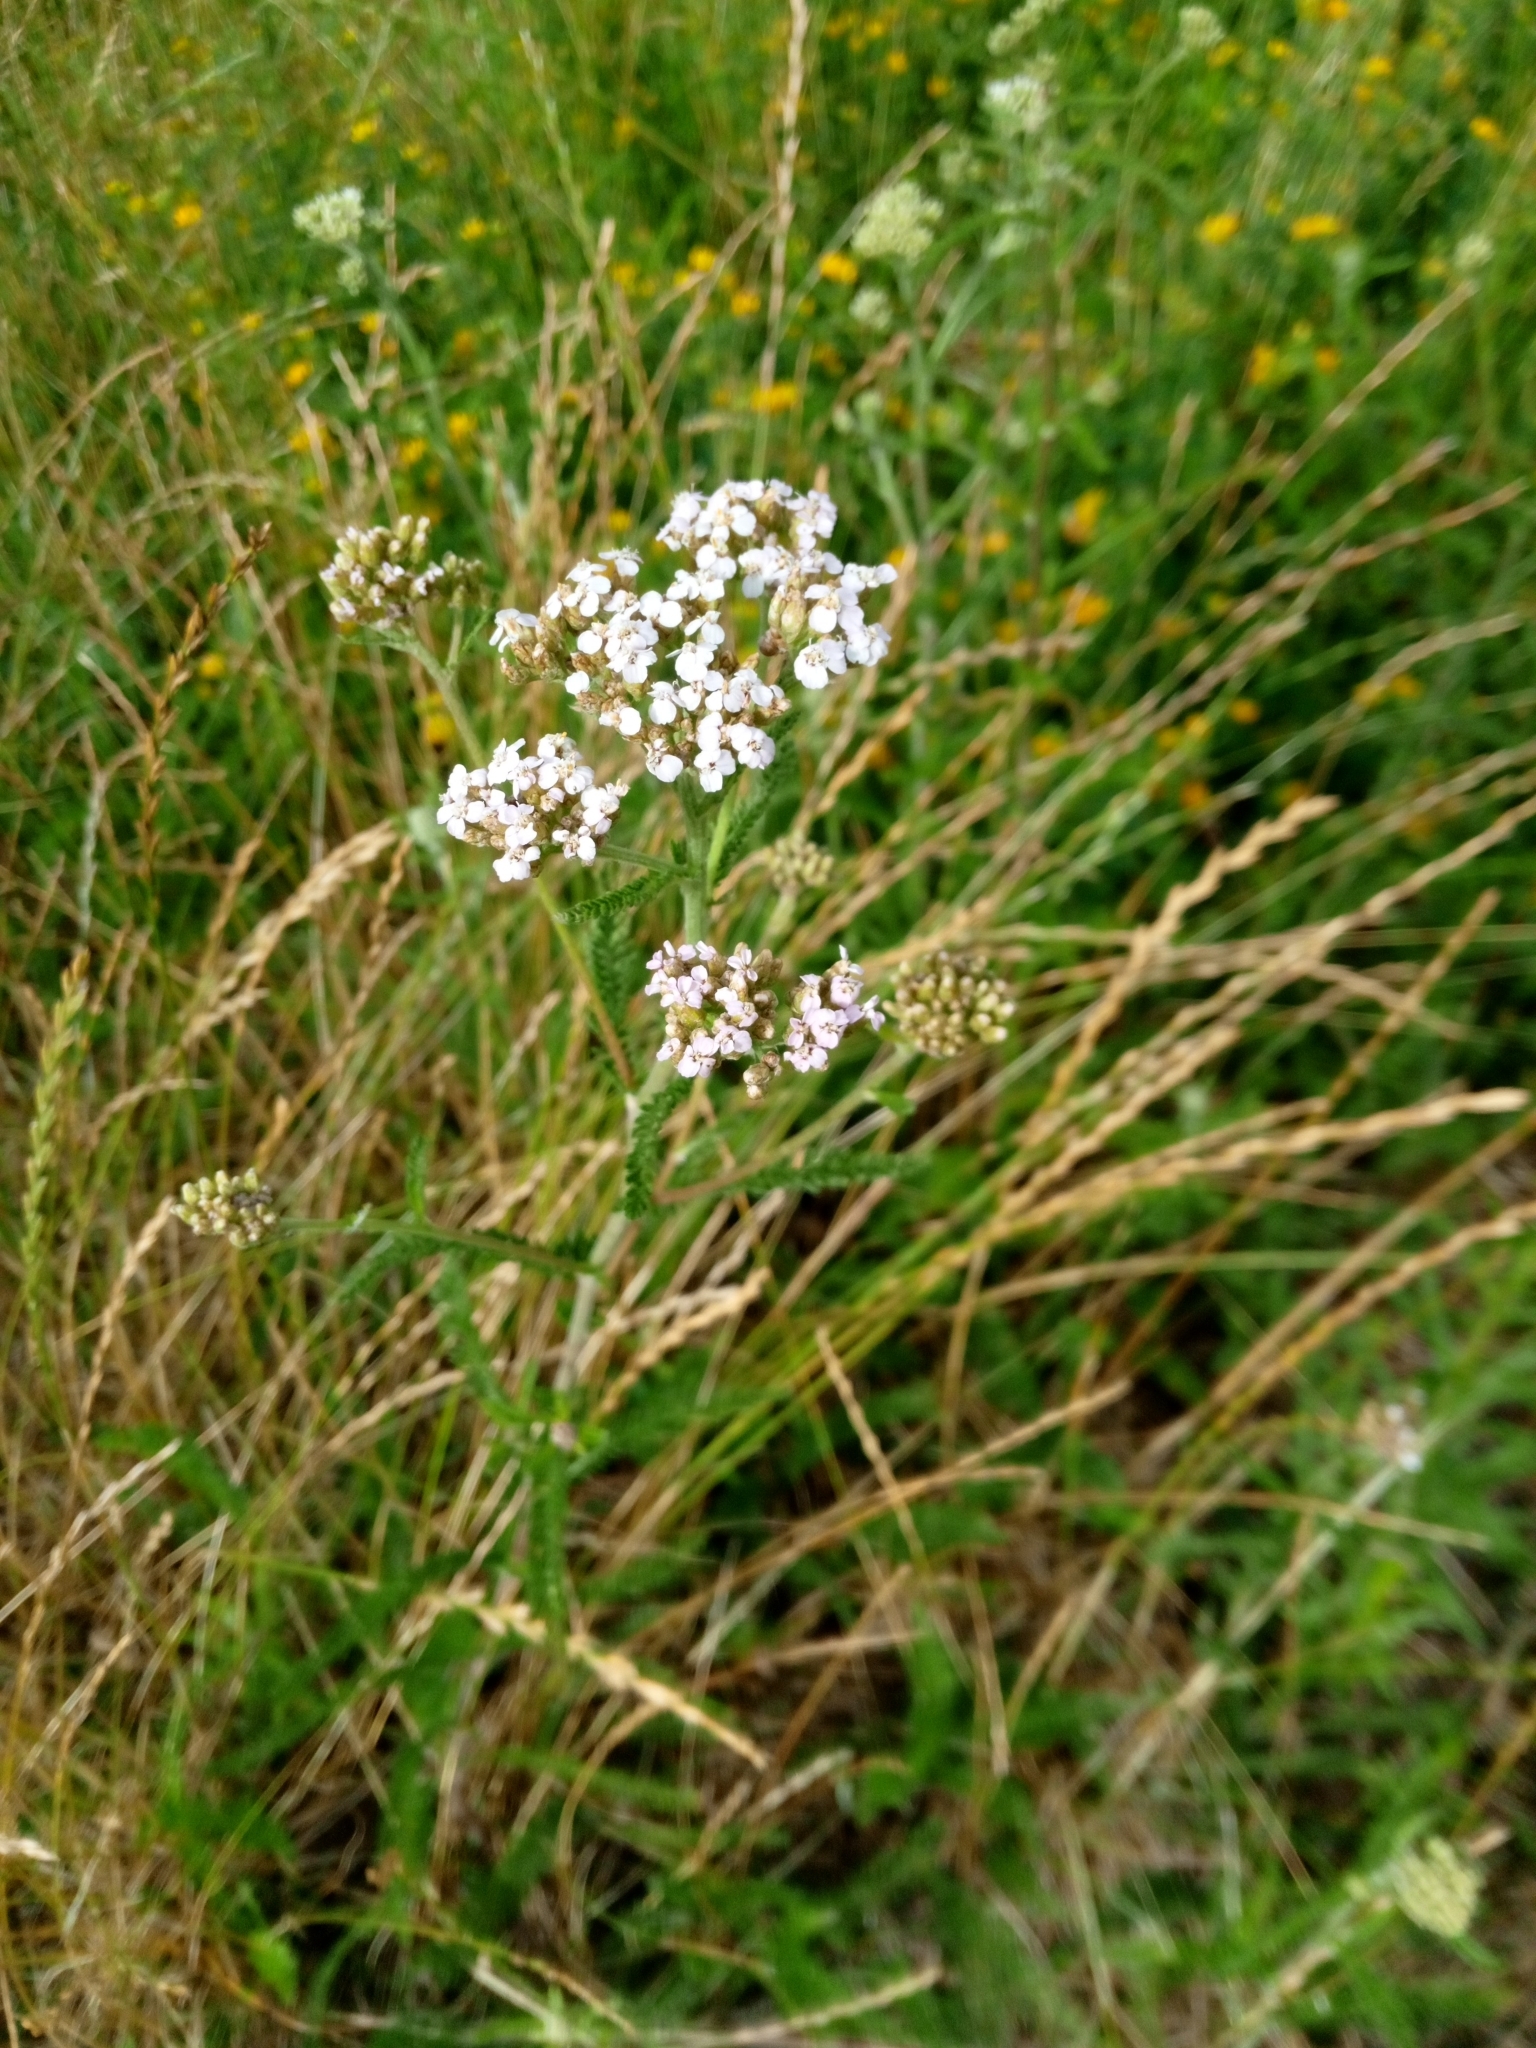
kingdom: Plantae
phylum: Tracheophyta
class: Magnoliopsida
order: Asterales
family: Asteraceae
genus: Achillea
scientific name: Achillea millefolium
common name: Yarrow
